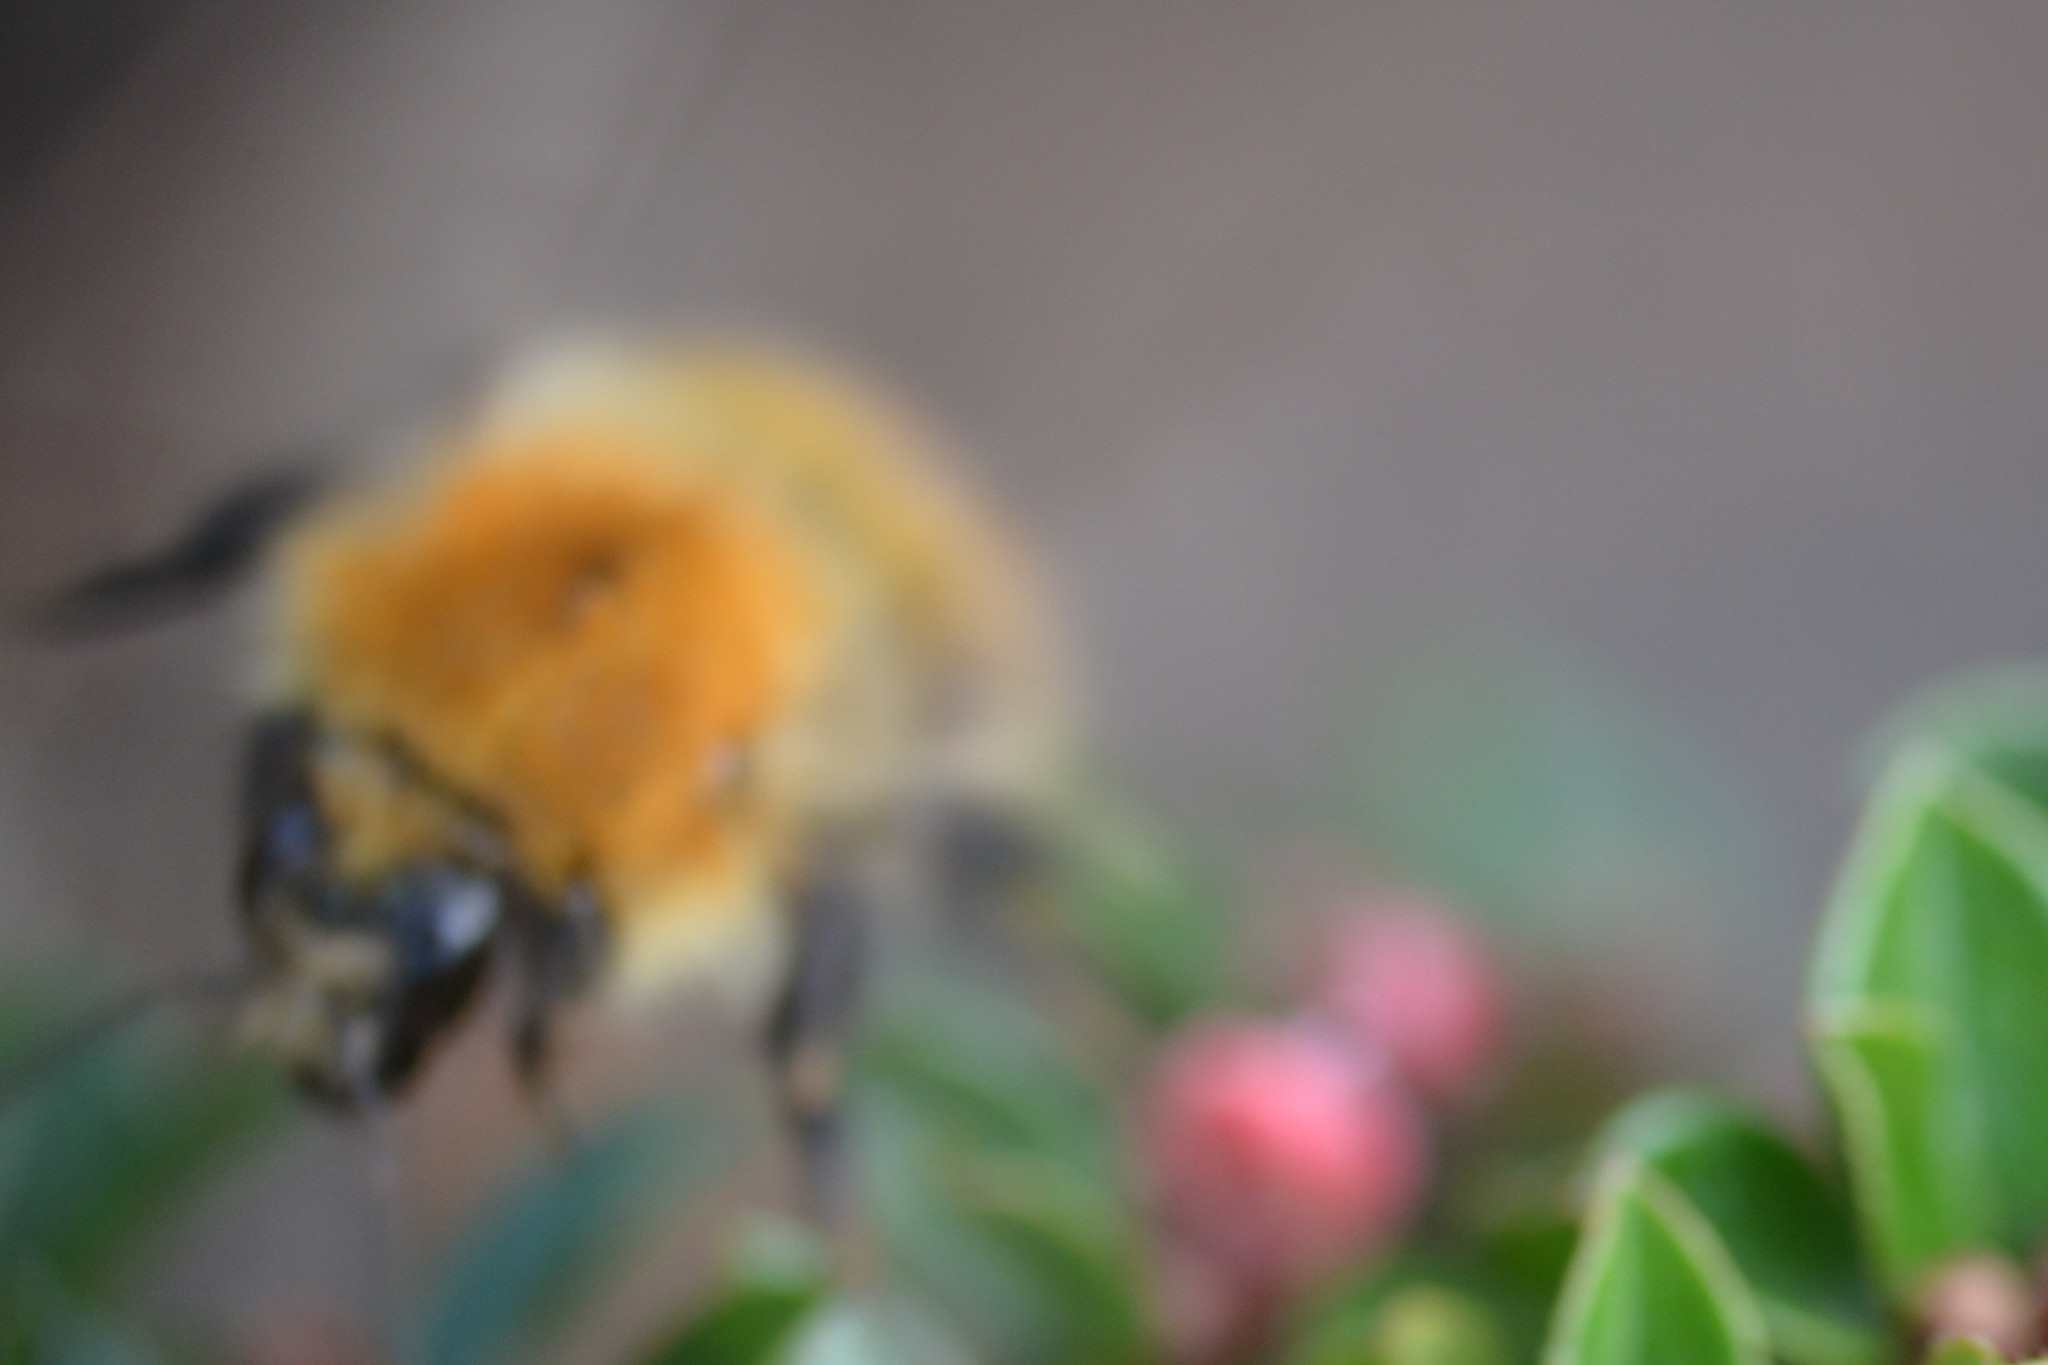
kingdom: Animalia
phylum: Arthropoda
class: Insecta
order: Hymenoptera
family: Apidae
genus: Bombus
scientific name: Bombus pascuorum
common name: Common carder bee
